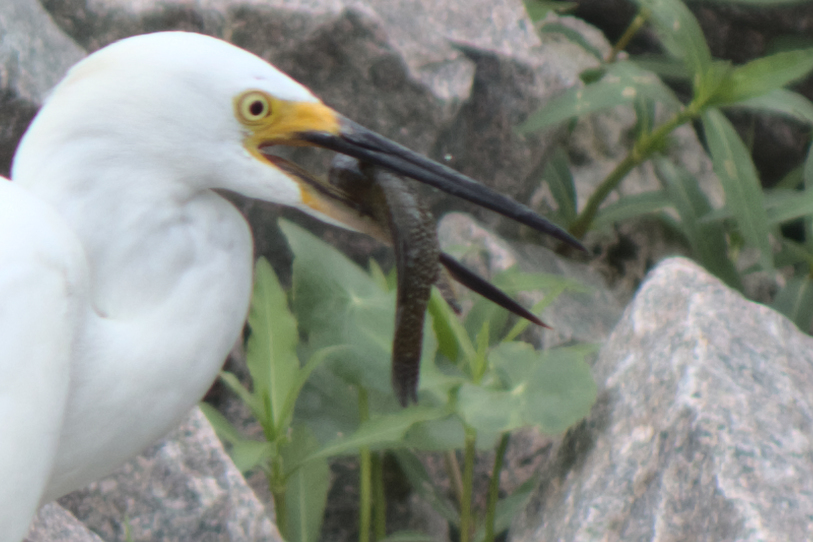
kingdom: Animalia
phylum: Chordata
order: Cyprinodontiformes
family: Fundulidae
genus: Fundulus
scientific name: Fundulus heteroclitus
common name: Mummichog
